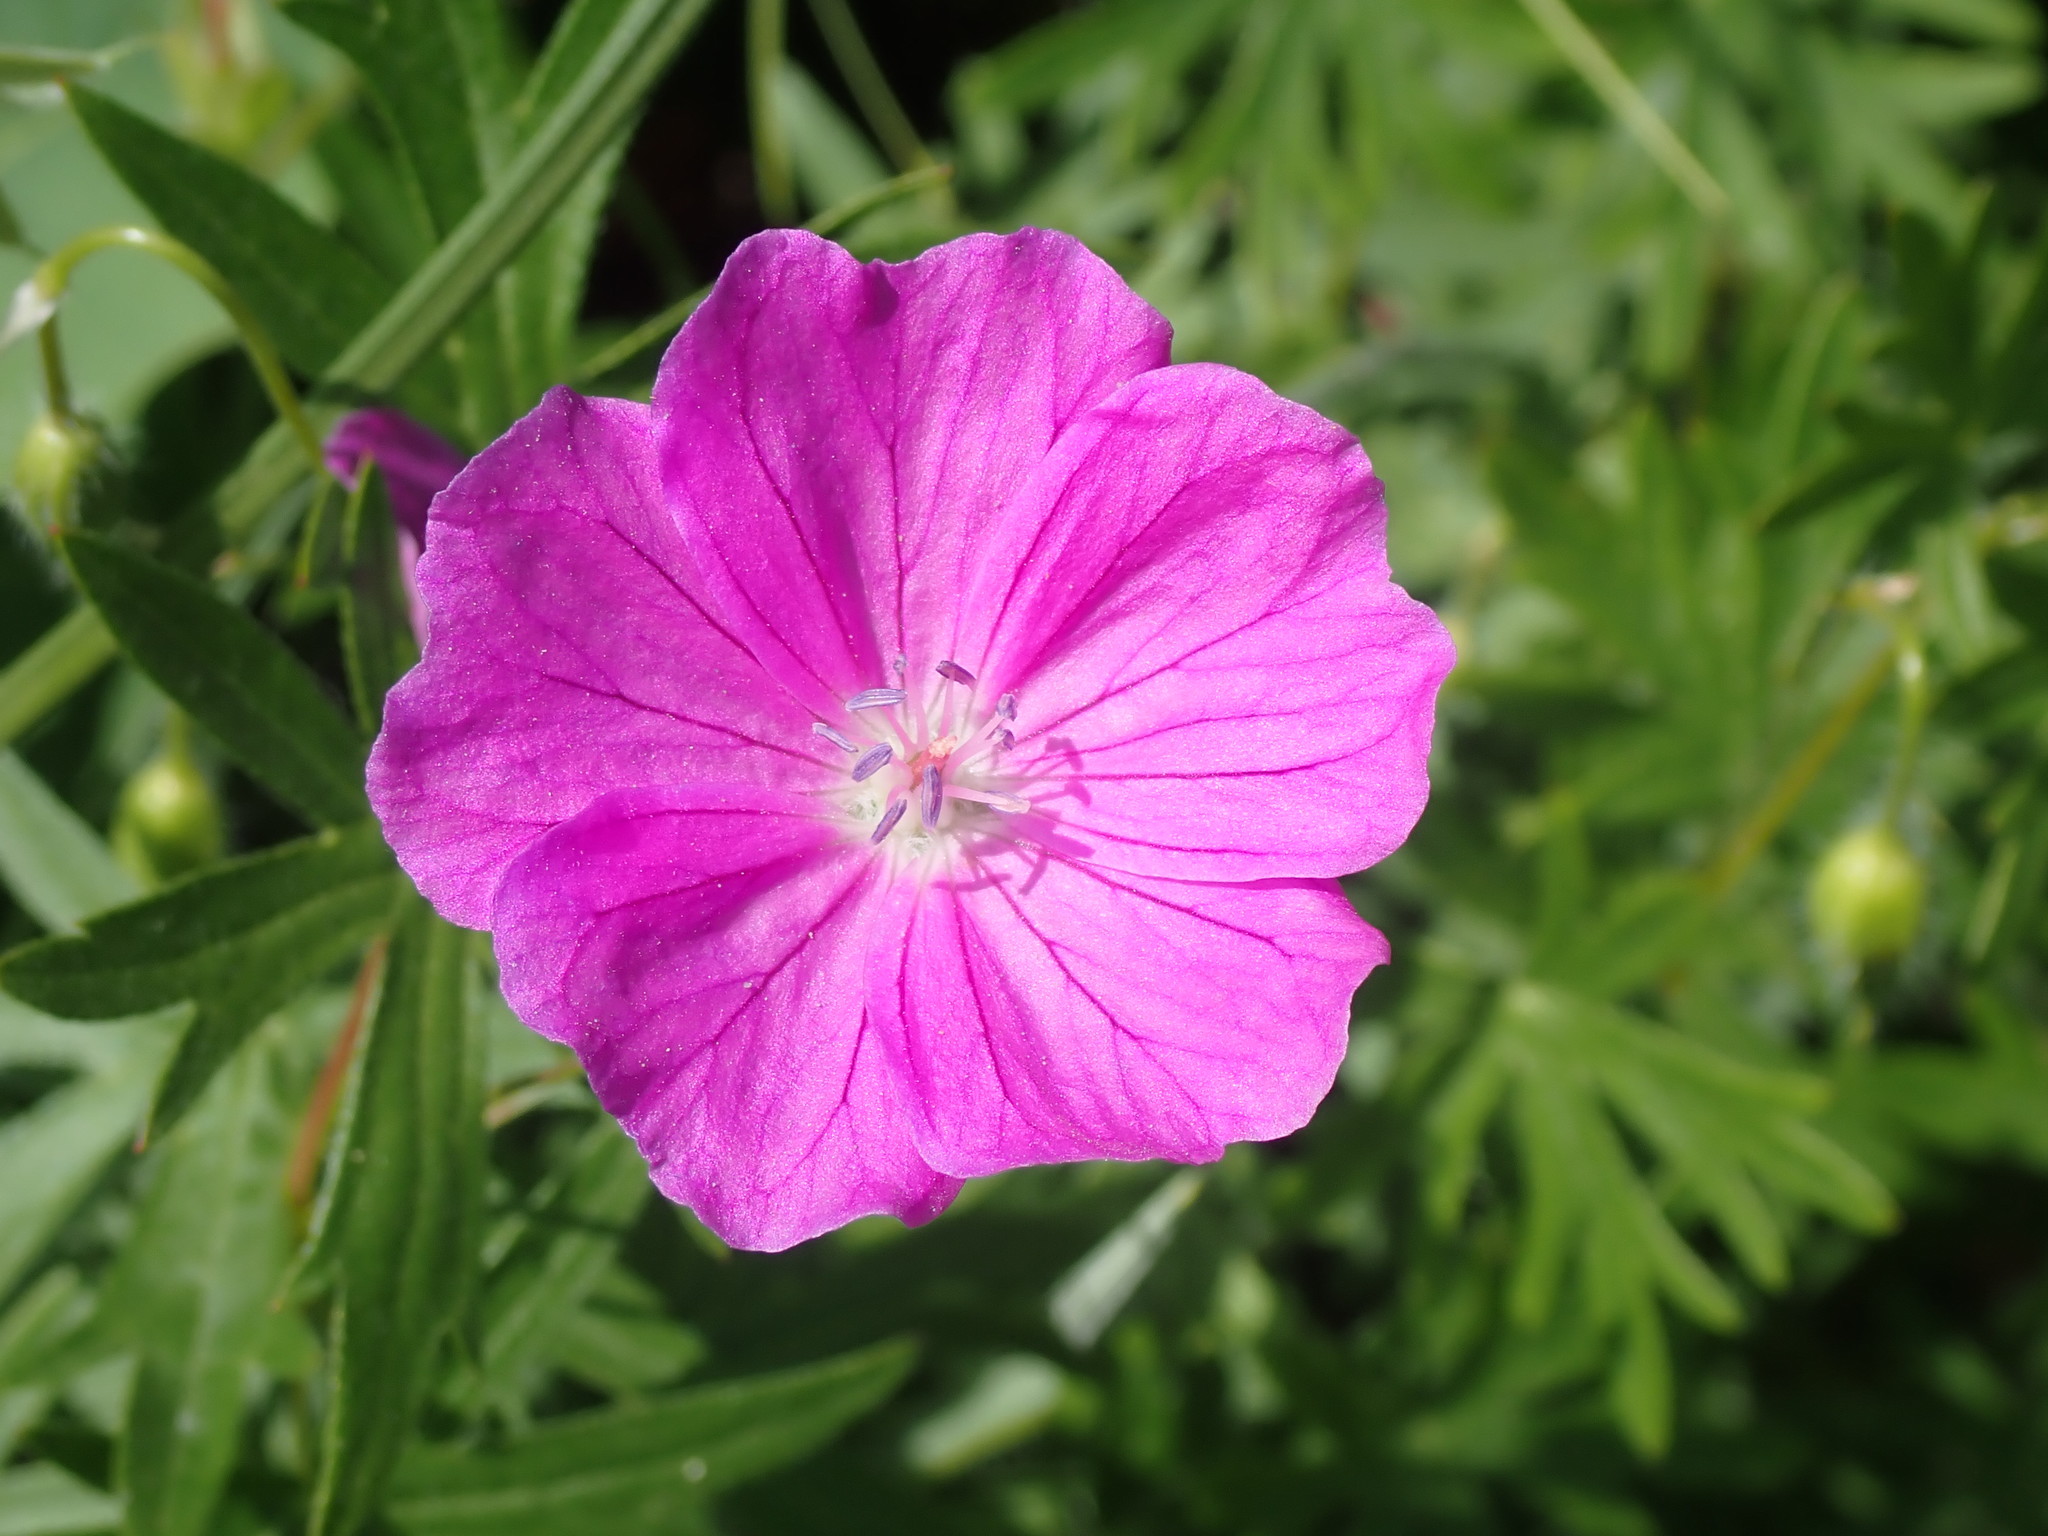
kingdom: Plantae
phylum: Tracheophyta
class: Magnoliopsida
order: Geraniales
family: Geraniaceae
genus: Geranium
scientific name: Geranium sanguineum
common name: Bloody crane's-bill
